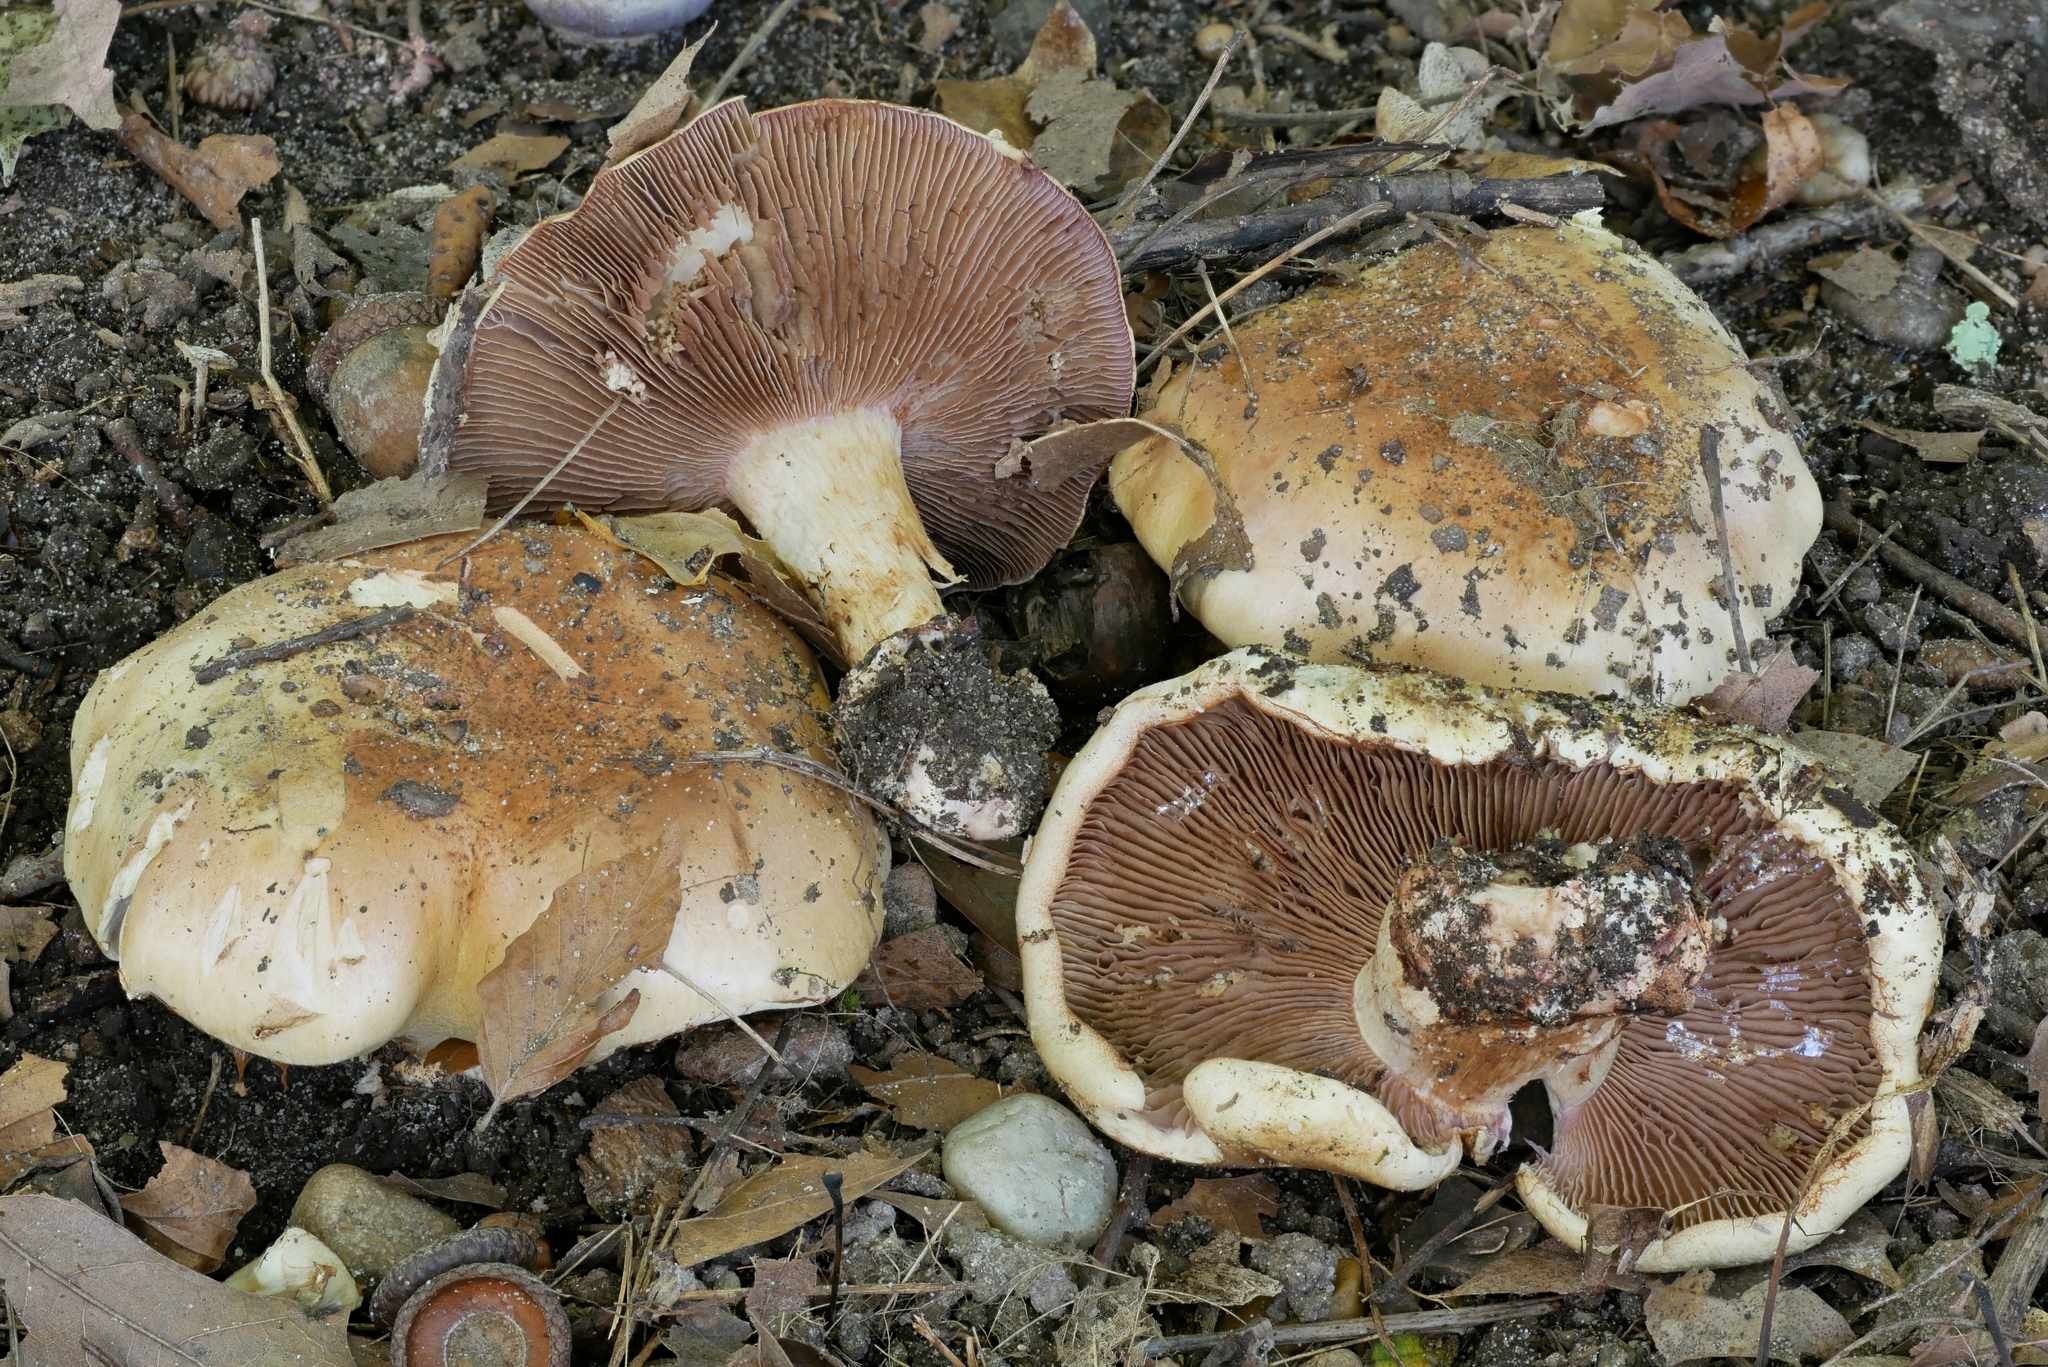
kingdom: Fungi
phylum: Basidiomycota
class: Agaricomycetes
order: Agaricales
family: Cortinariaceae
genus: Cortinarius
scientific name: Cortinarius atkinsonianus
